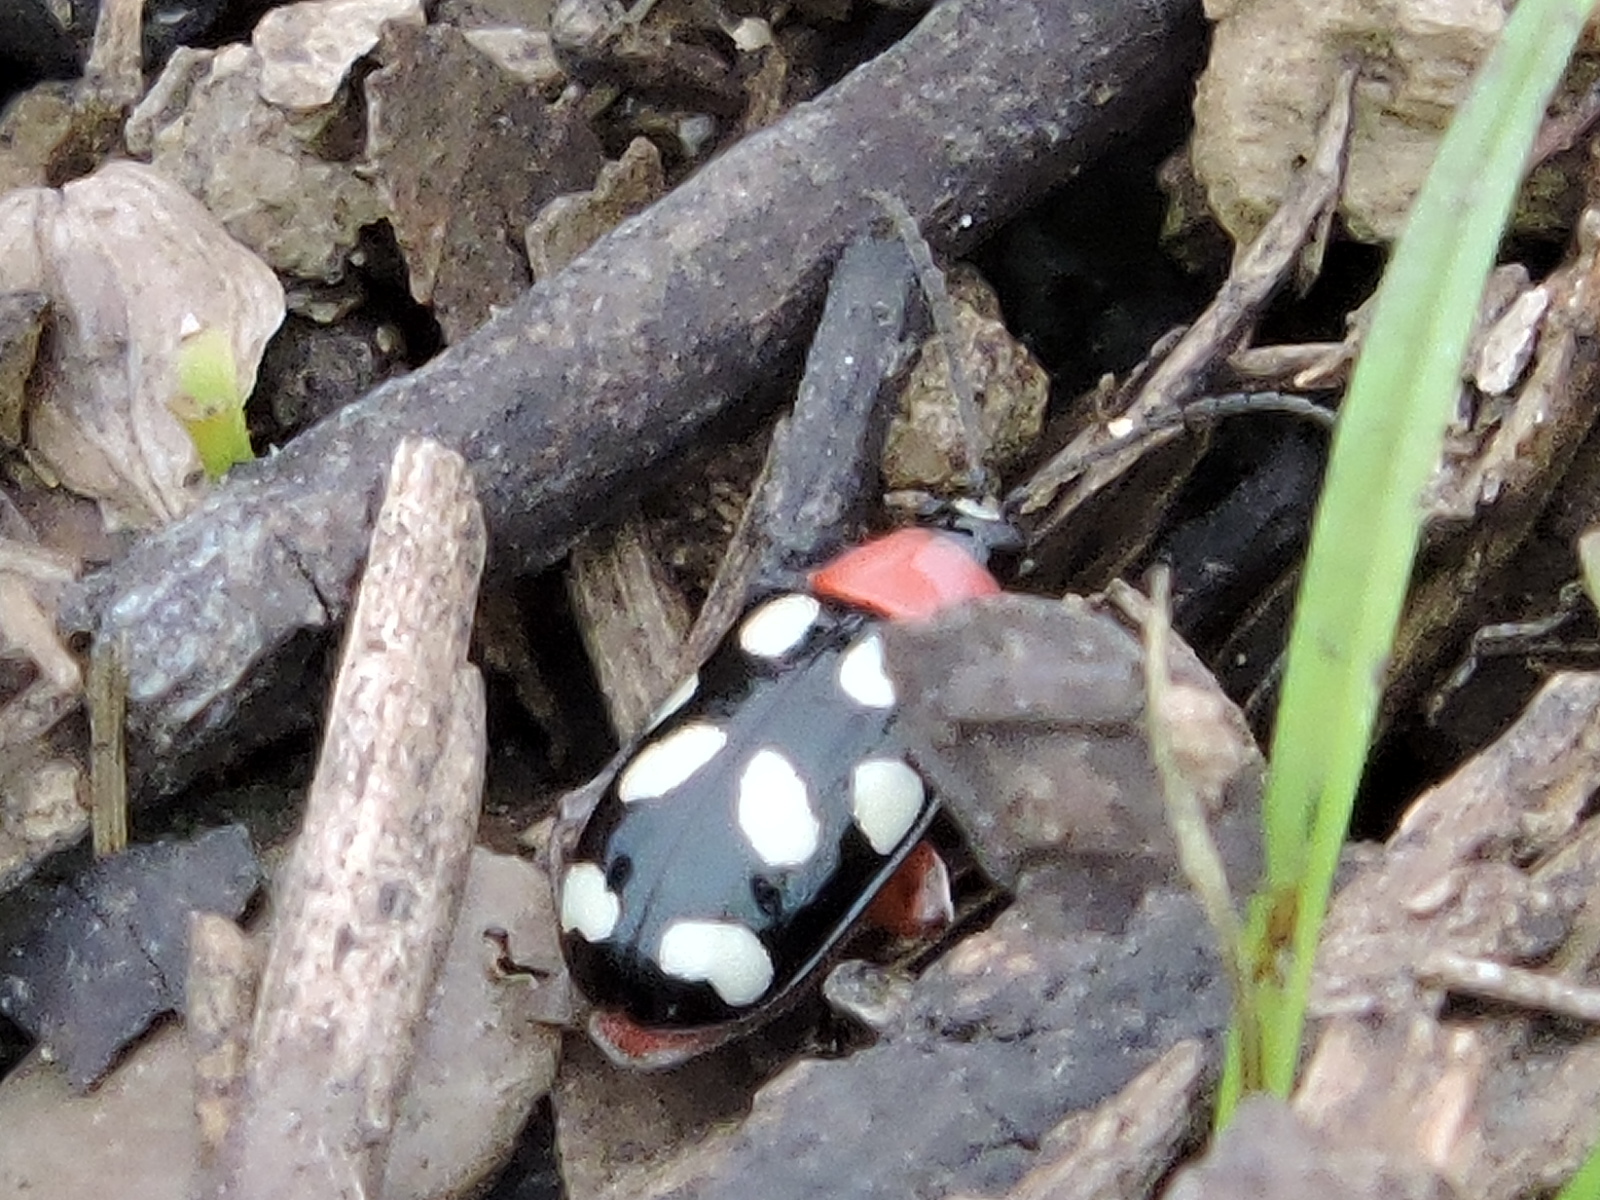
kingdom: Animalia
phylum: Arthropoda
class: Insecta
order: Coleoptera
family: Chrysomelidae
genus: Omophoita
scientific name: Omophoita cyanipennis
